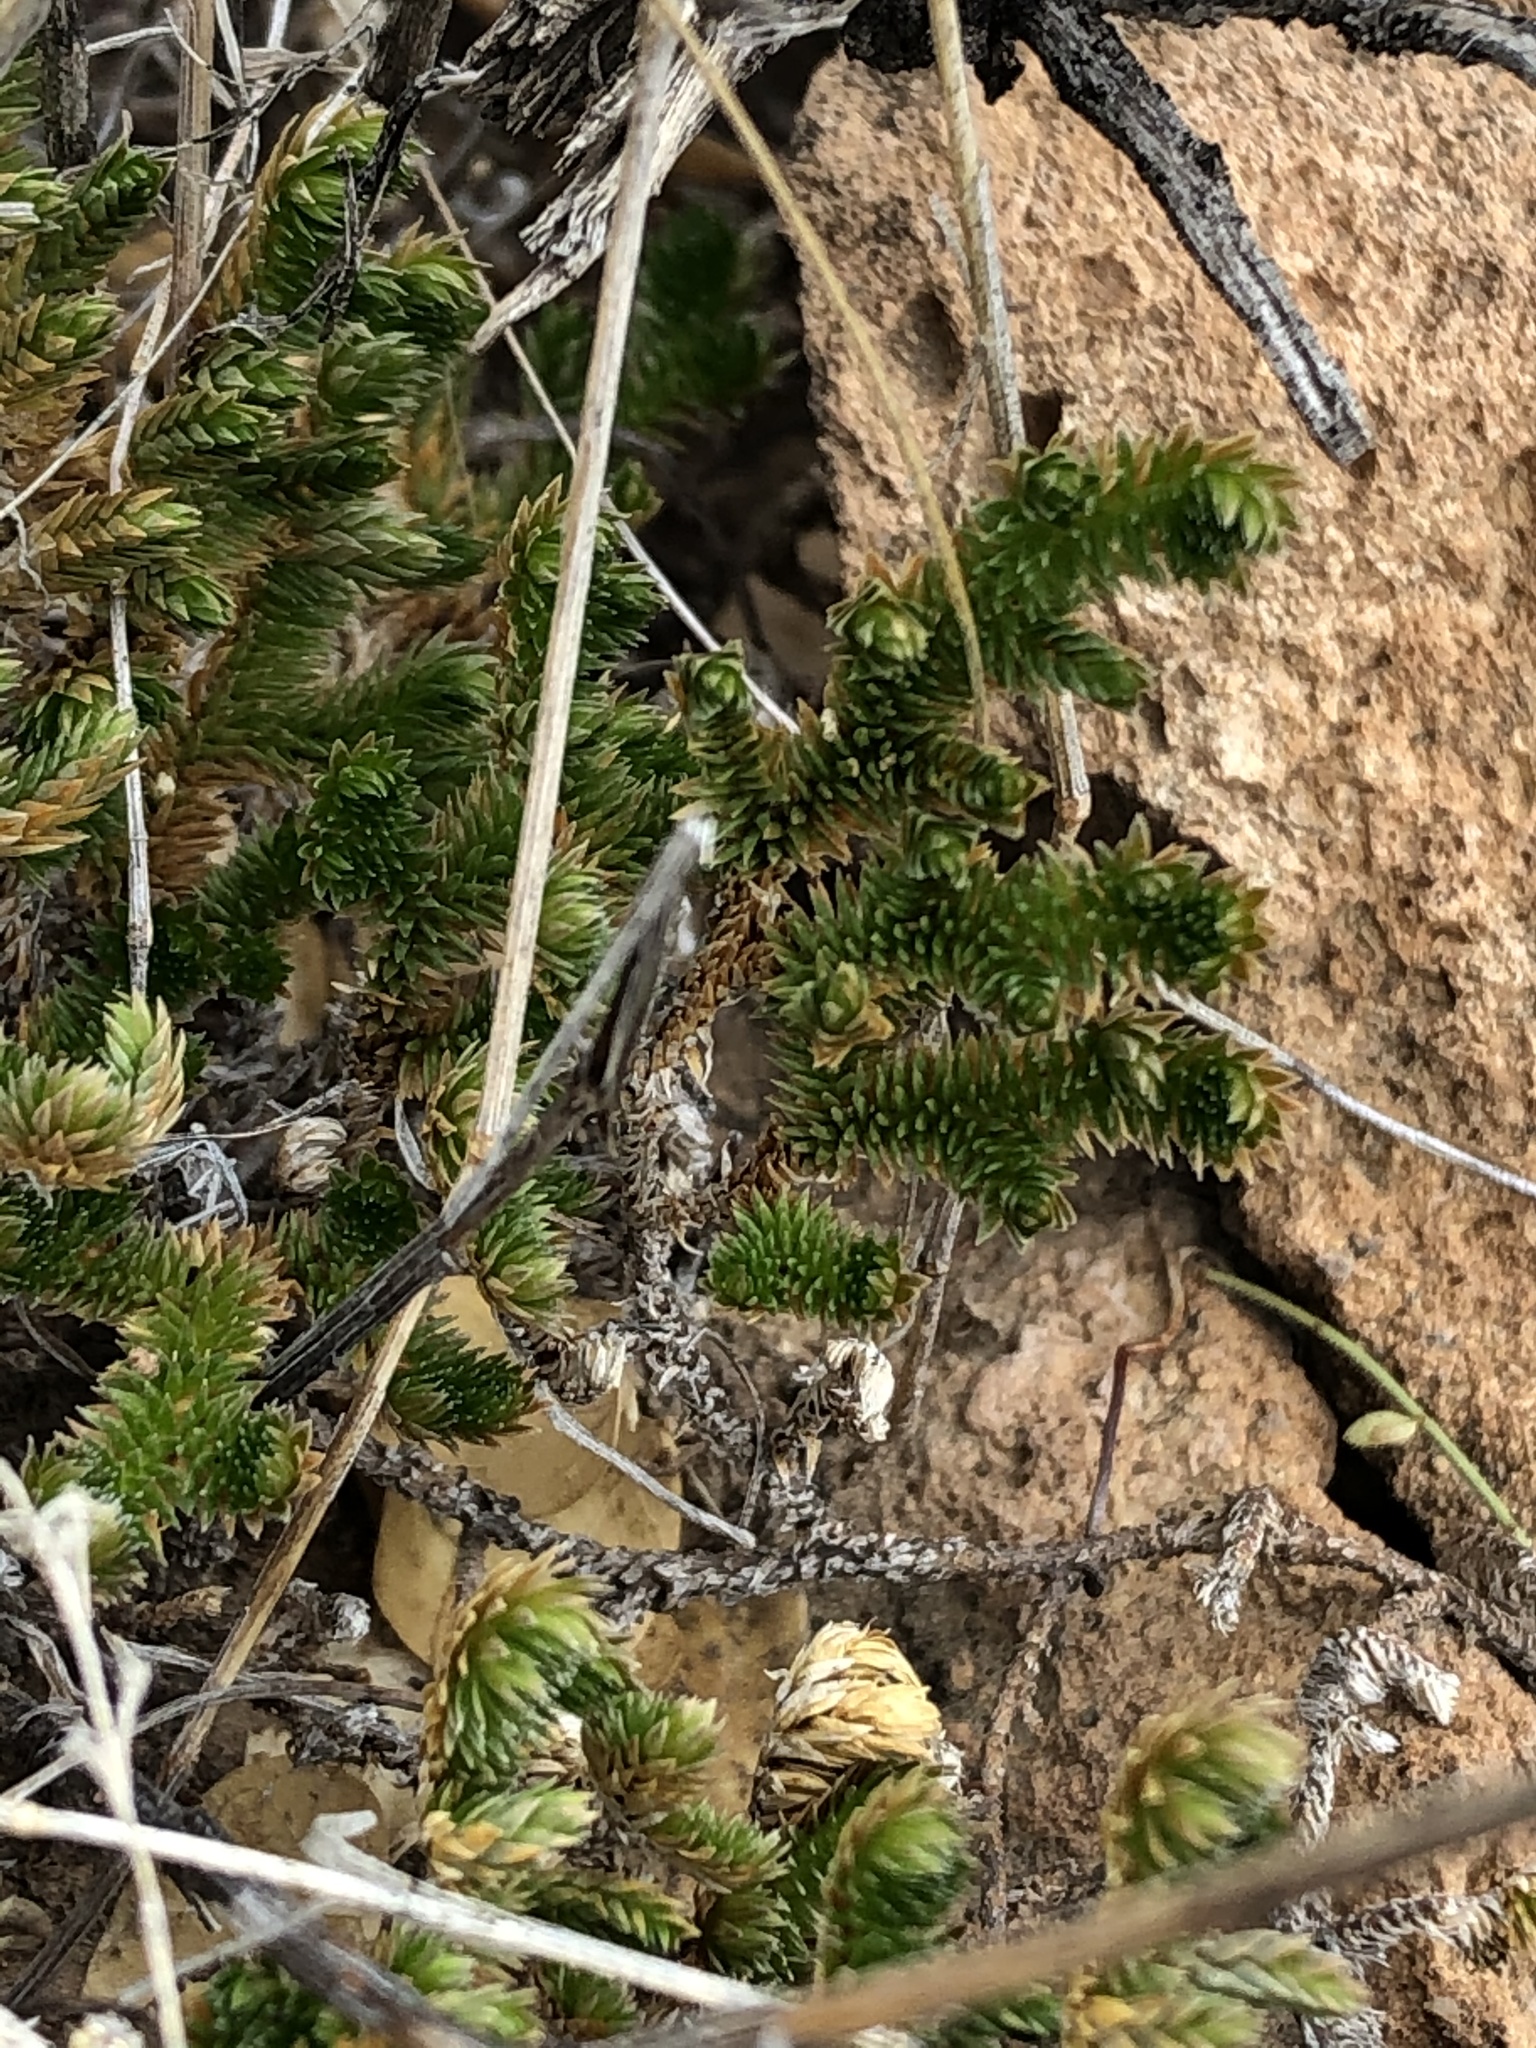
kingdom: Plantae
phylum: Tracheophyta
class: Lycopodiopsida
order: Selaginellales
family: Selaginellaceae
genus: Selaginella
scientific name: Selaginella arizonica
